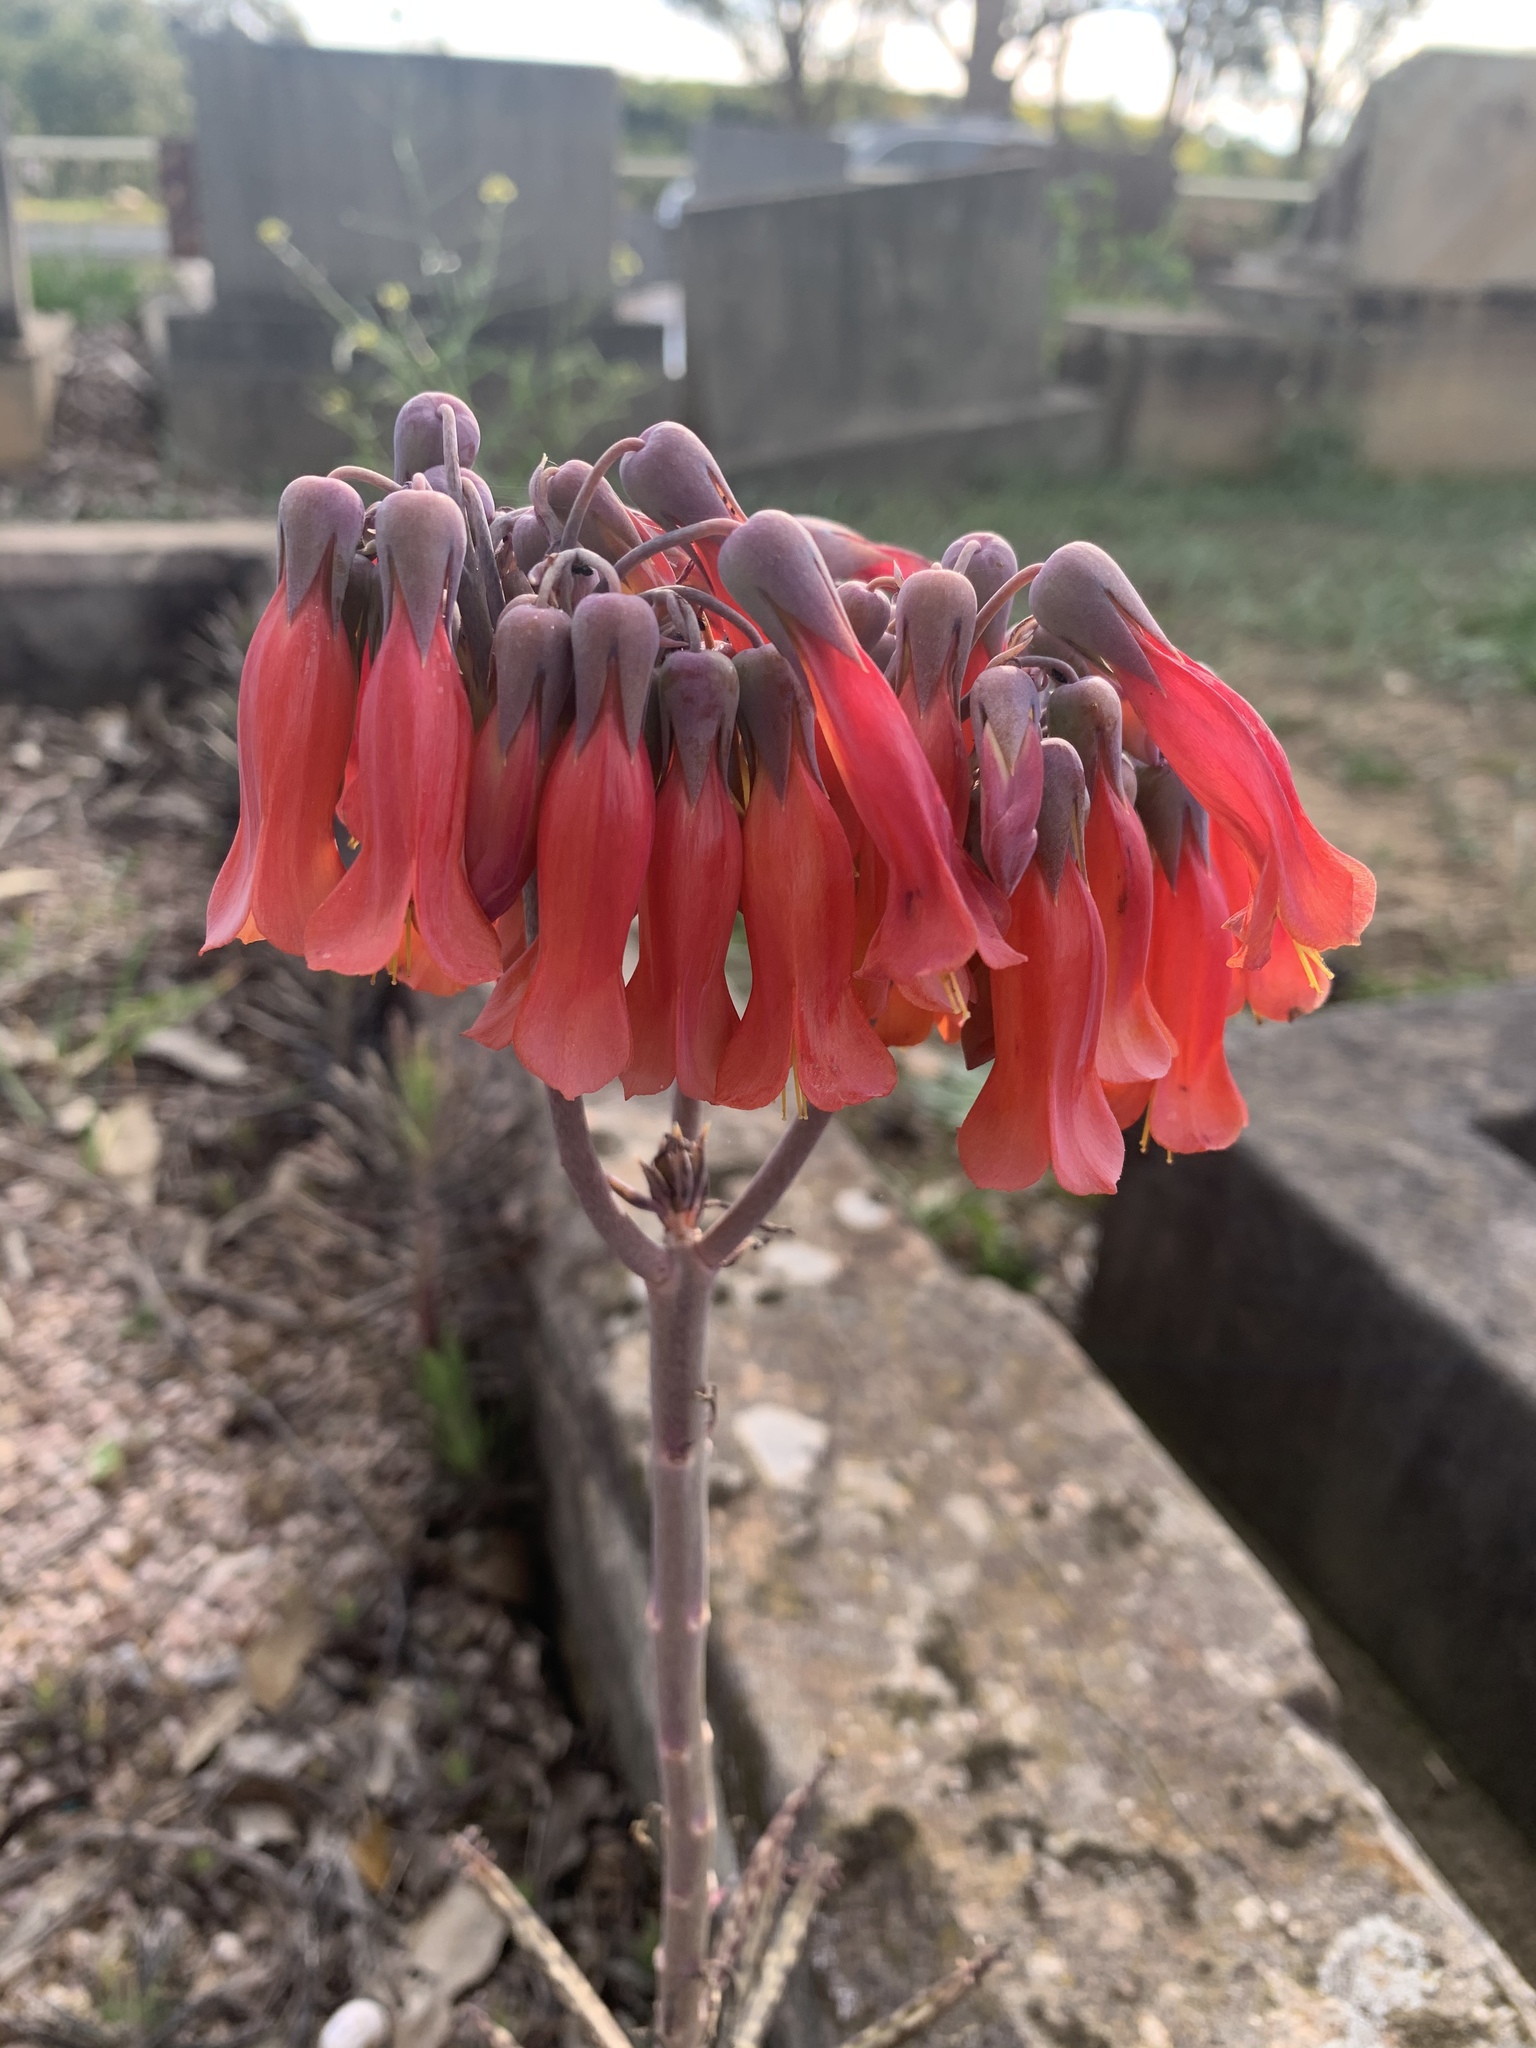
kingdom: Plantae
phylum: Tracheophyta
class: Magnoliopsida
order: Saxifragales
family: Crassulaceae
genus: Kalanchoe
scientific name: Kalanchoe delagoensis
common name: Chandelier plant
